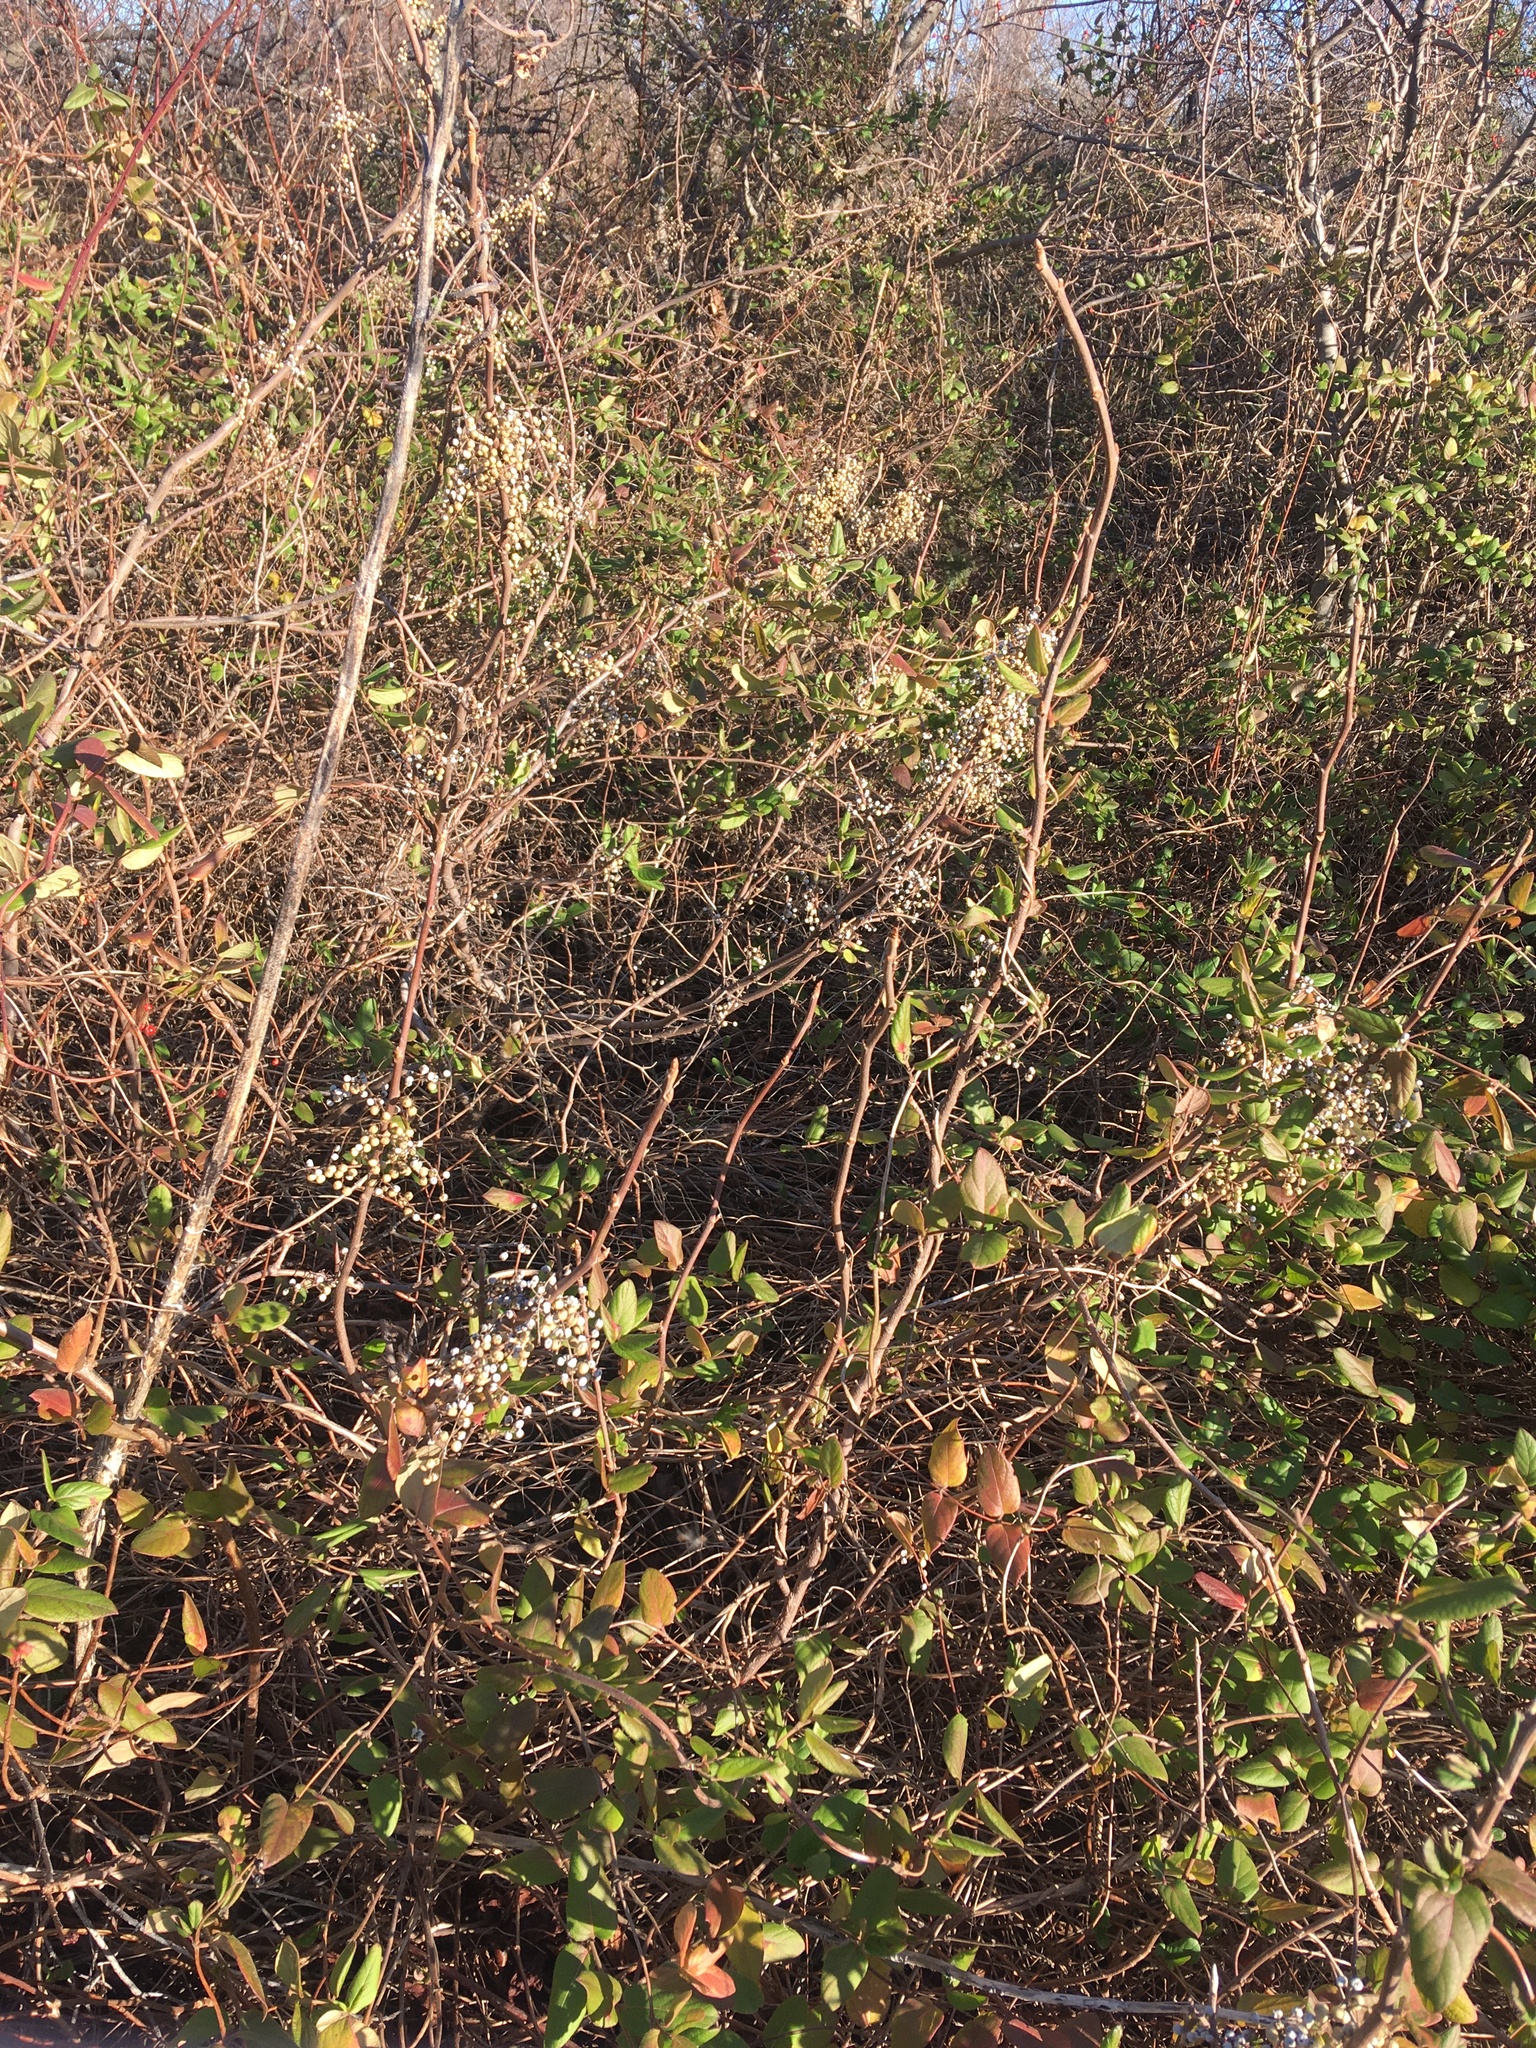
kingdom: Plantae
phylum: Tracheophyta
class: Magnoliopsida
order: Sapindales
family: Anacardiaceae
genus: Toxicodendron
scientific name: Toxicodendron radicans
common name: Poison ivy
